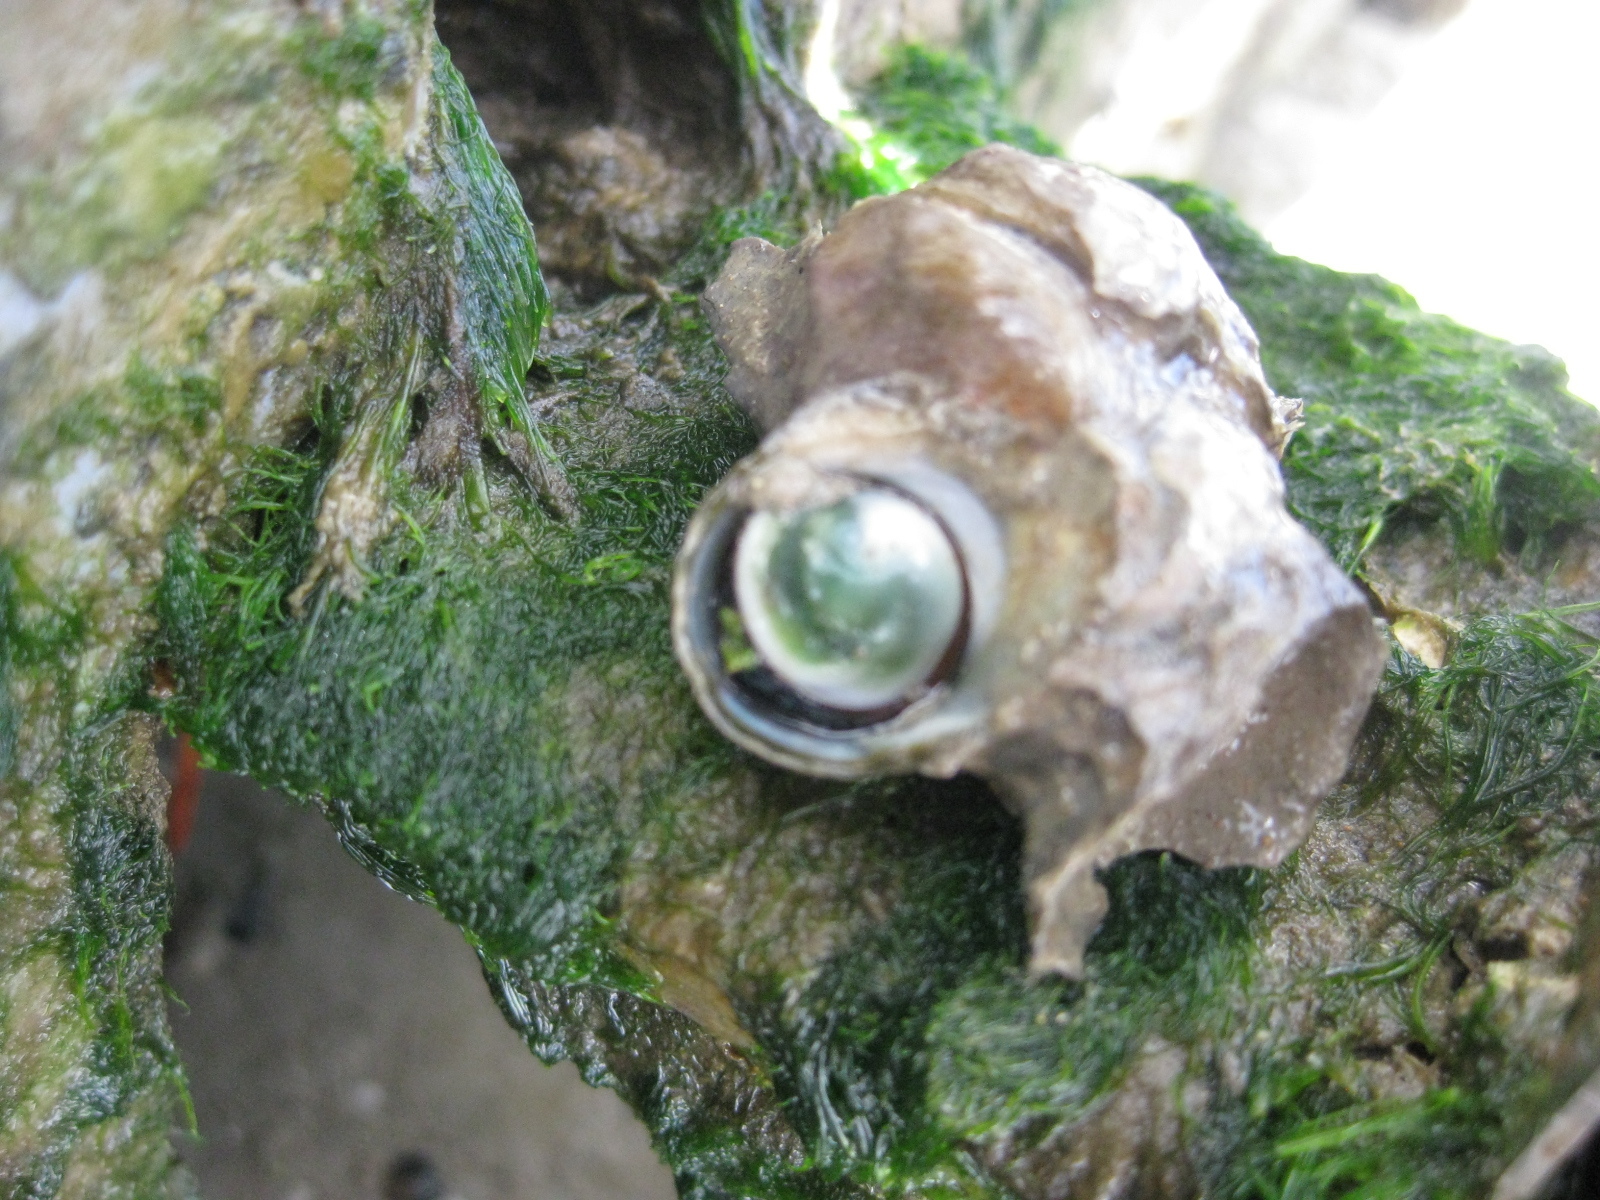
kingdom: Animalia
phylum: Mollusca
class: Gastropoda
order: Trochida
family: Turbinidae
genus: Lunella
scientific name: Lunella smaragda
